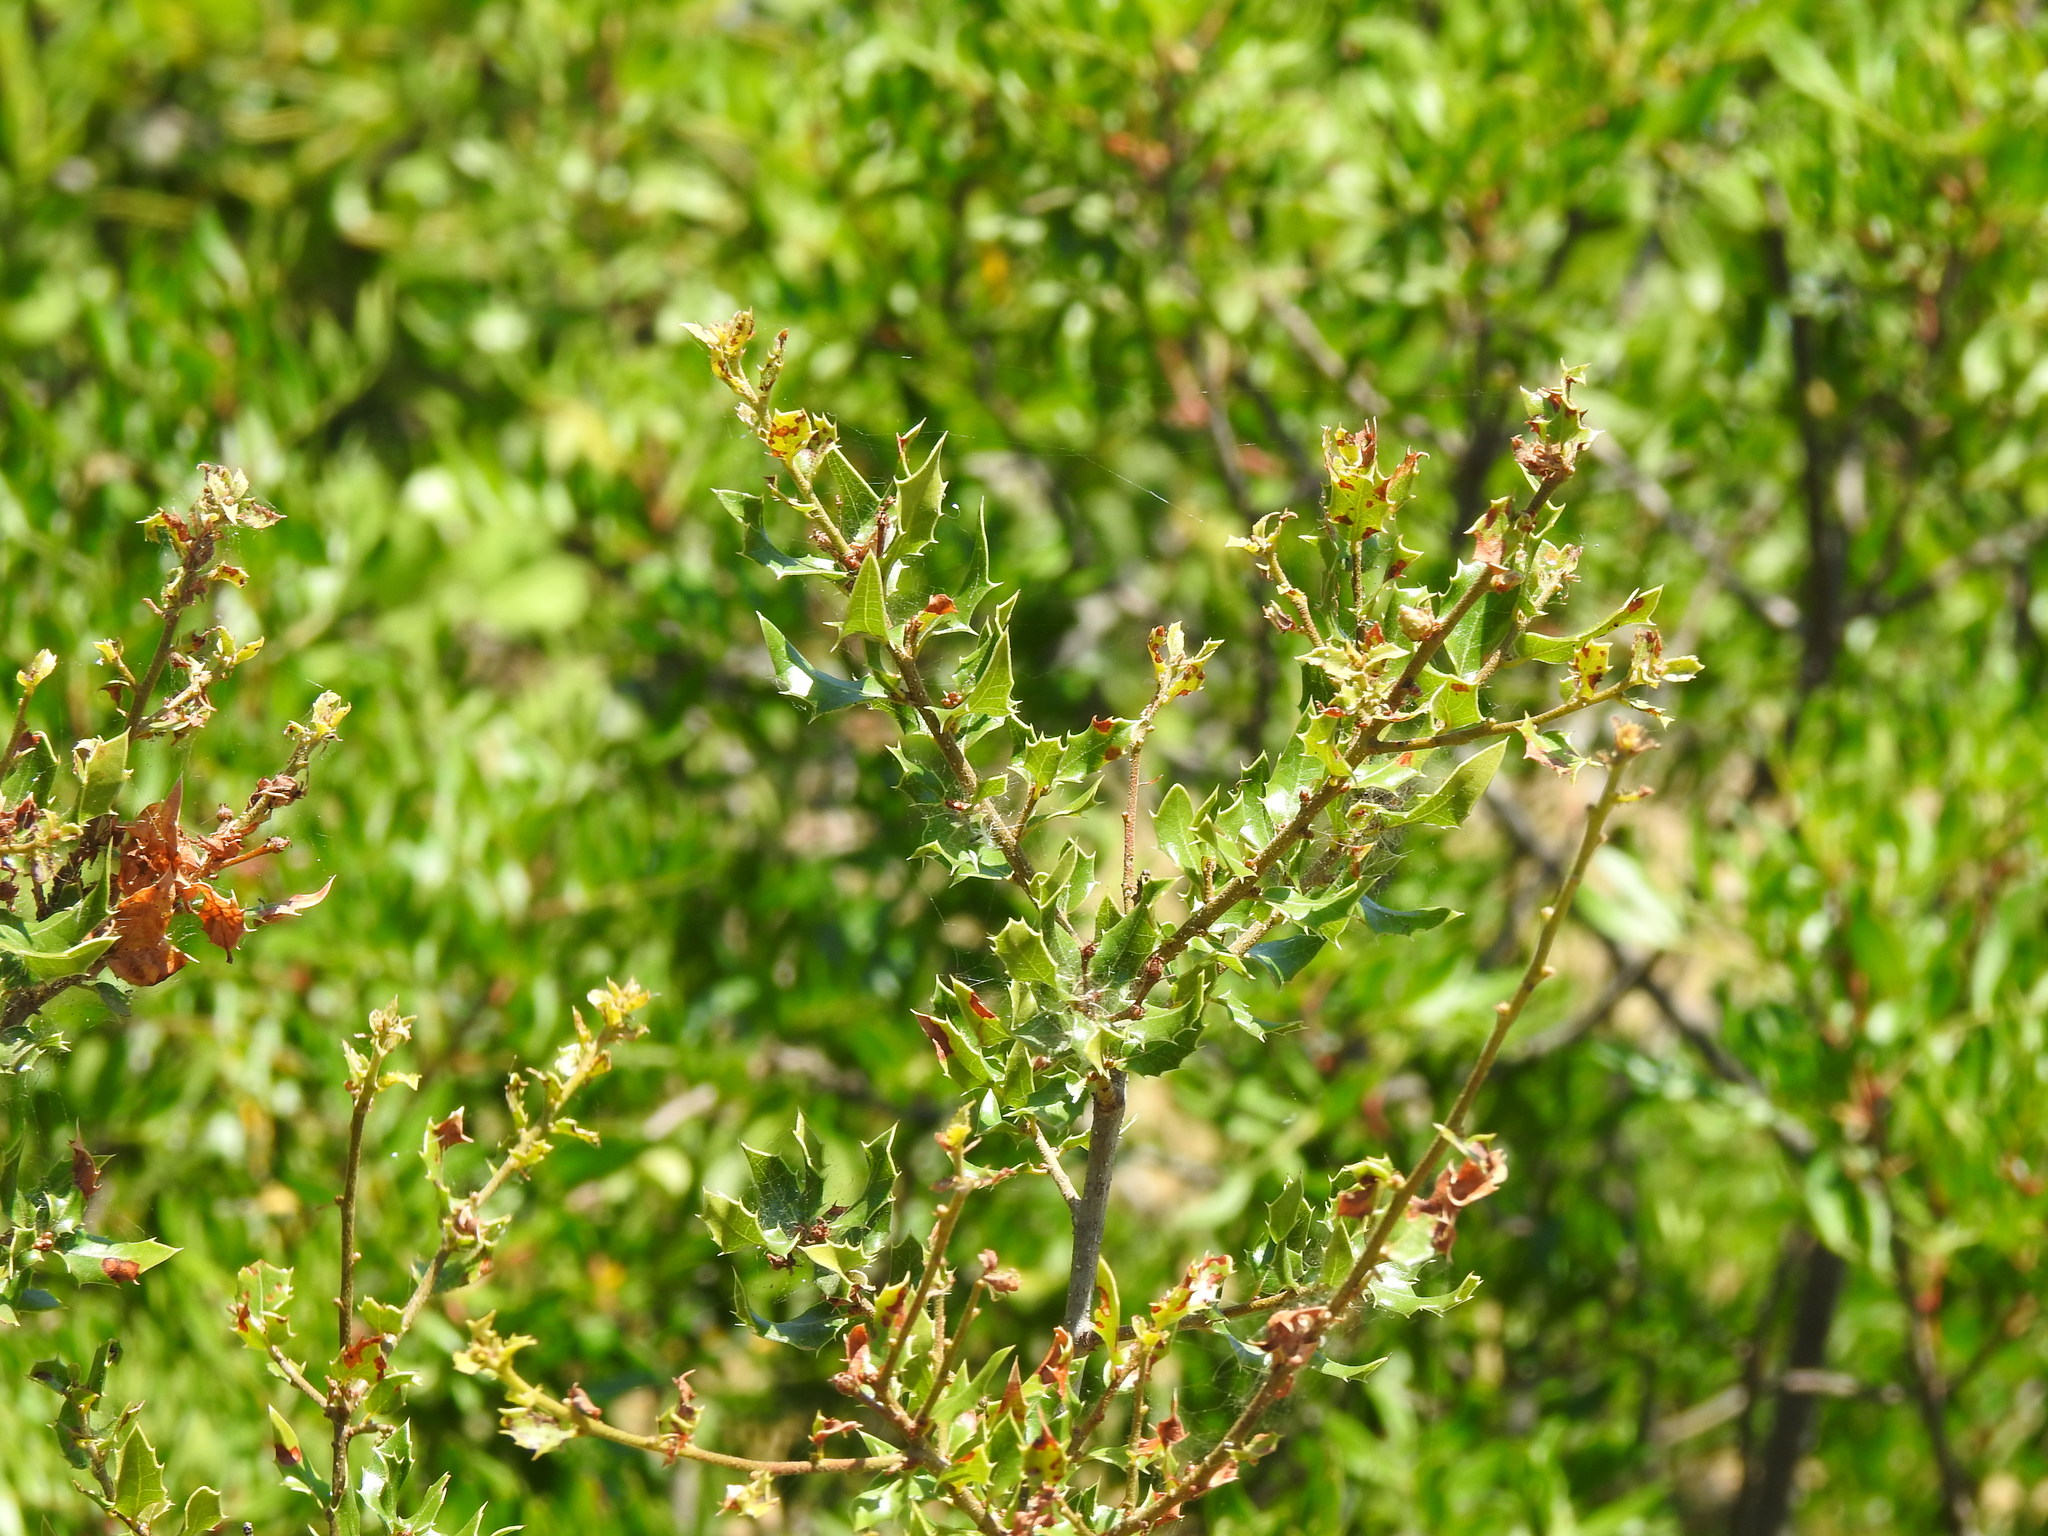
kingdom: Plantae
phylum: Tracheophyta
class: Magnoliopsida
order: Fagales
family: Fagaceae
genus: Quercus
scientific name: Quercus coccifera
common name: Kermes oak
